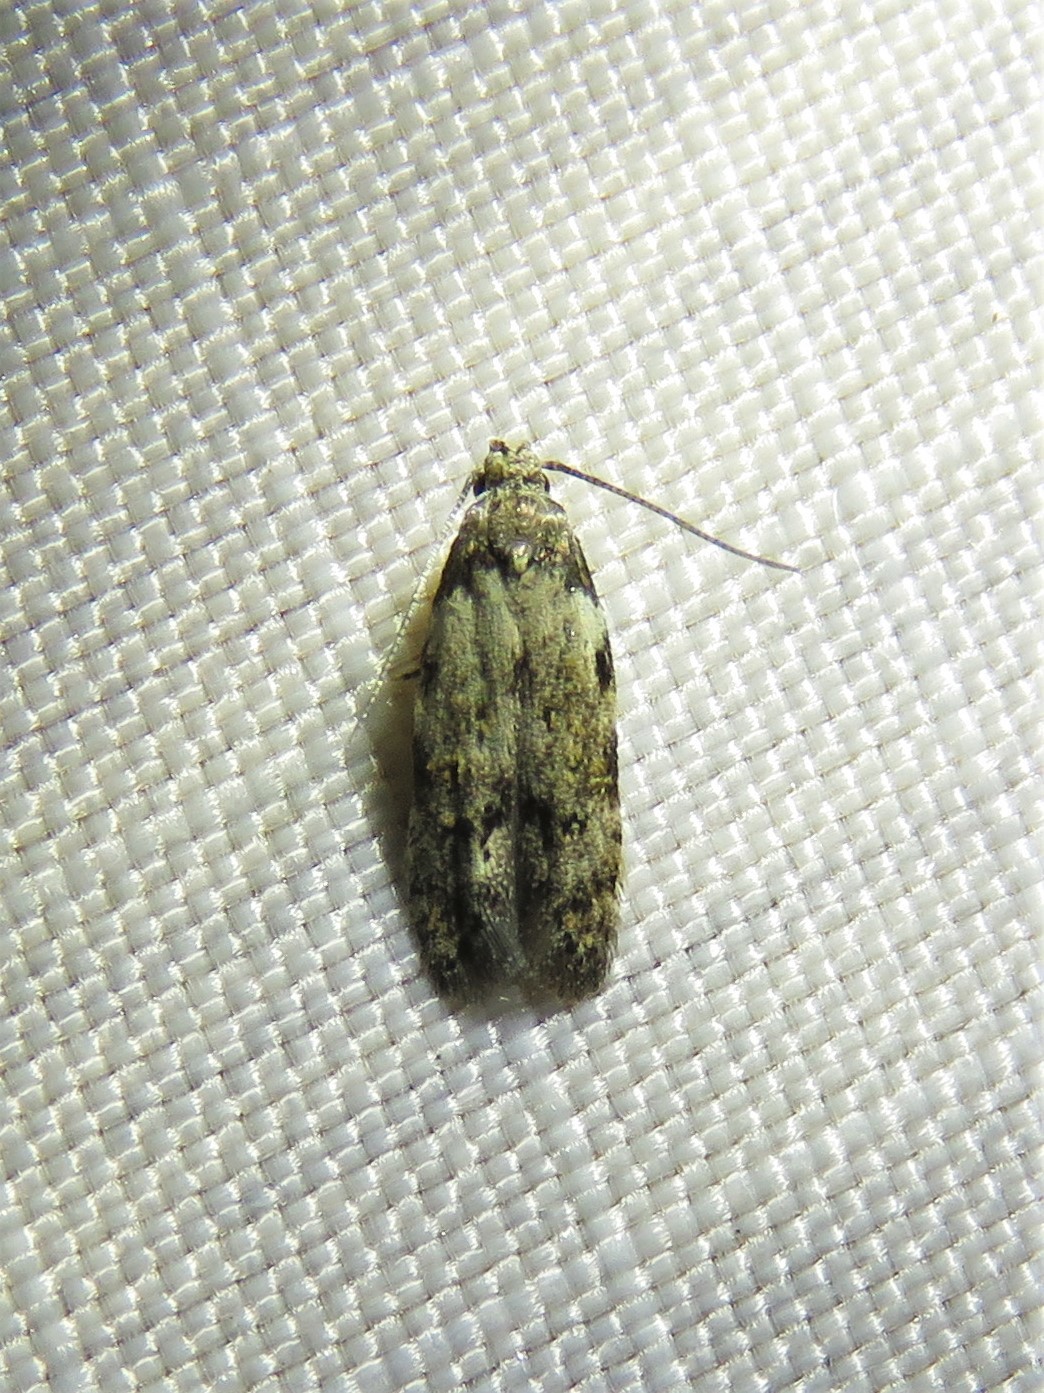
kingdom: Animalia
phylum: Arthropoda
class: Insecta
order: Lepidoptera
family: Autostichidae
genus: Taygete
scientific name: Taygete attributella
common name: Triangle-marked twirler moth
